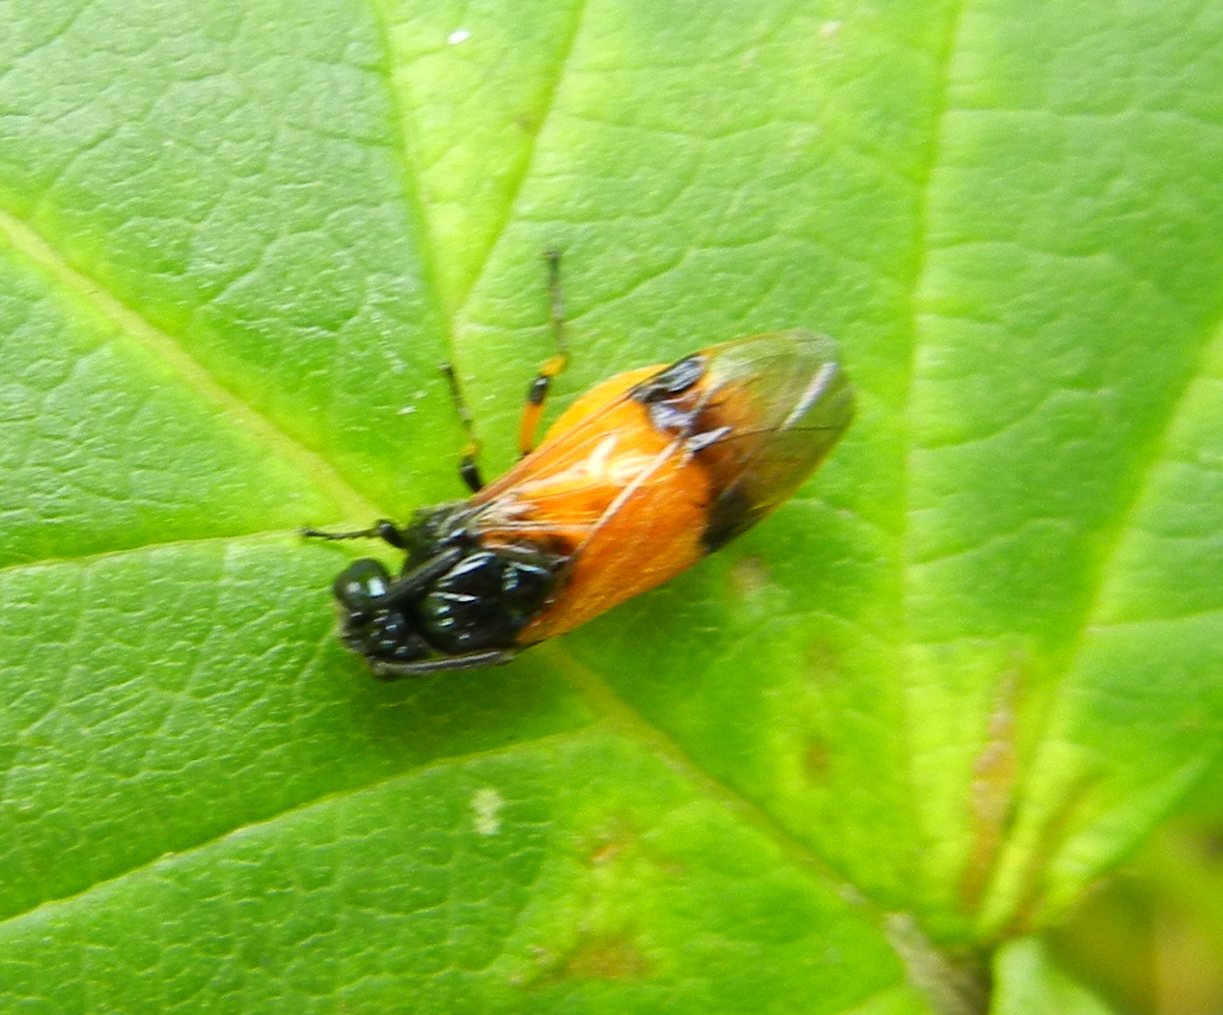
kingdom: Animalia
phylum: Arthropoda
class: Insecta
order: Hymenoptera
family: Argidae
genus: Arge
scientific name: Arge cyanocrocea
